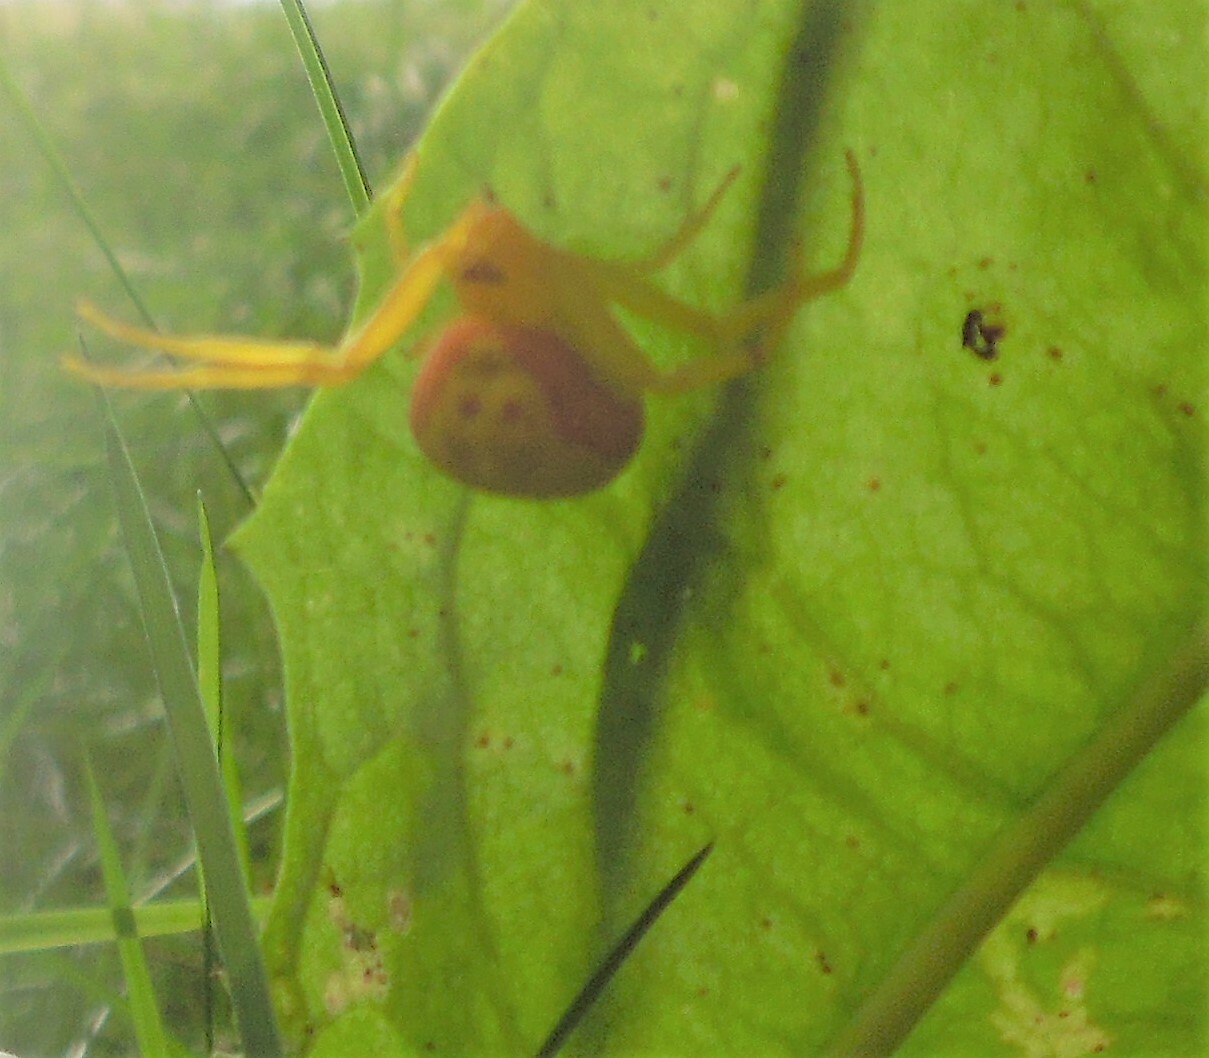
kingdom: Animalia
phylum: Arthropoda
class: Arachnida
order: Araneae
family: Thomisidae
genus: Misumena
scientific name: Misumena vatia
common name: Goldenrod crab spider
